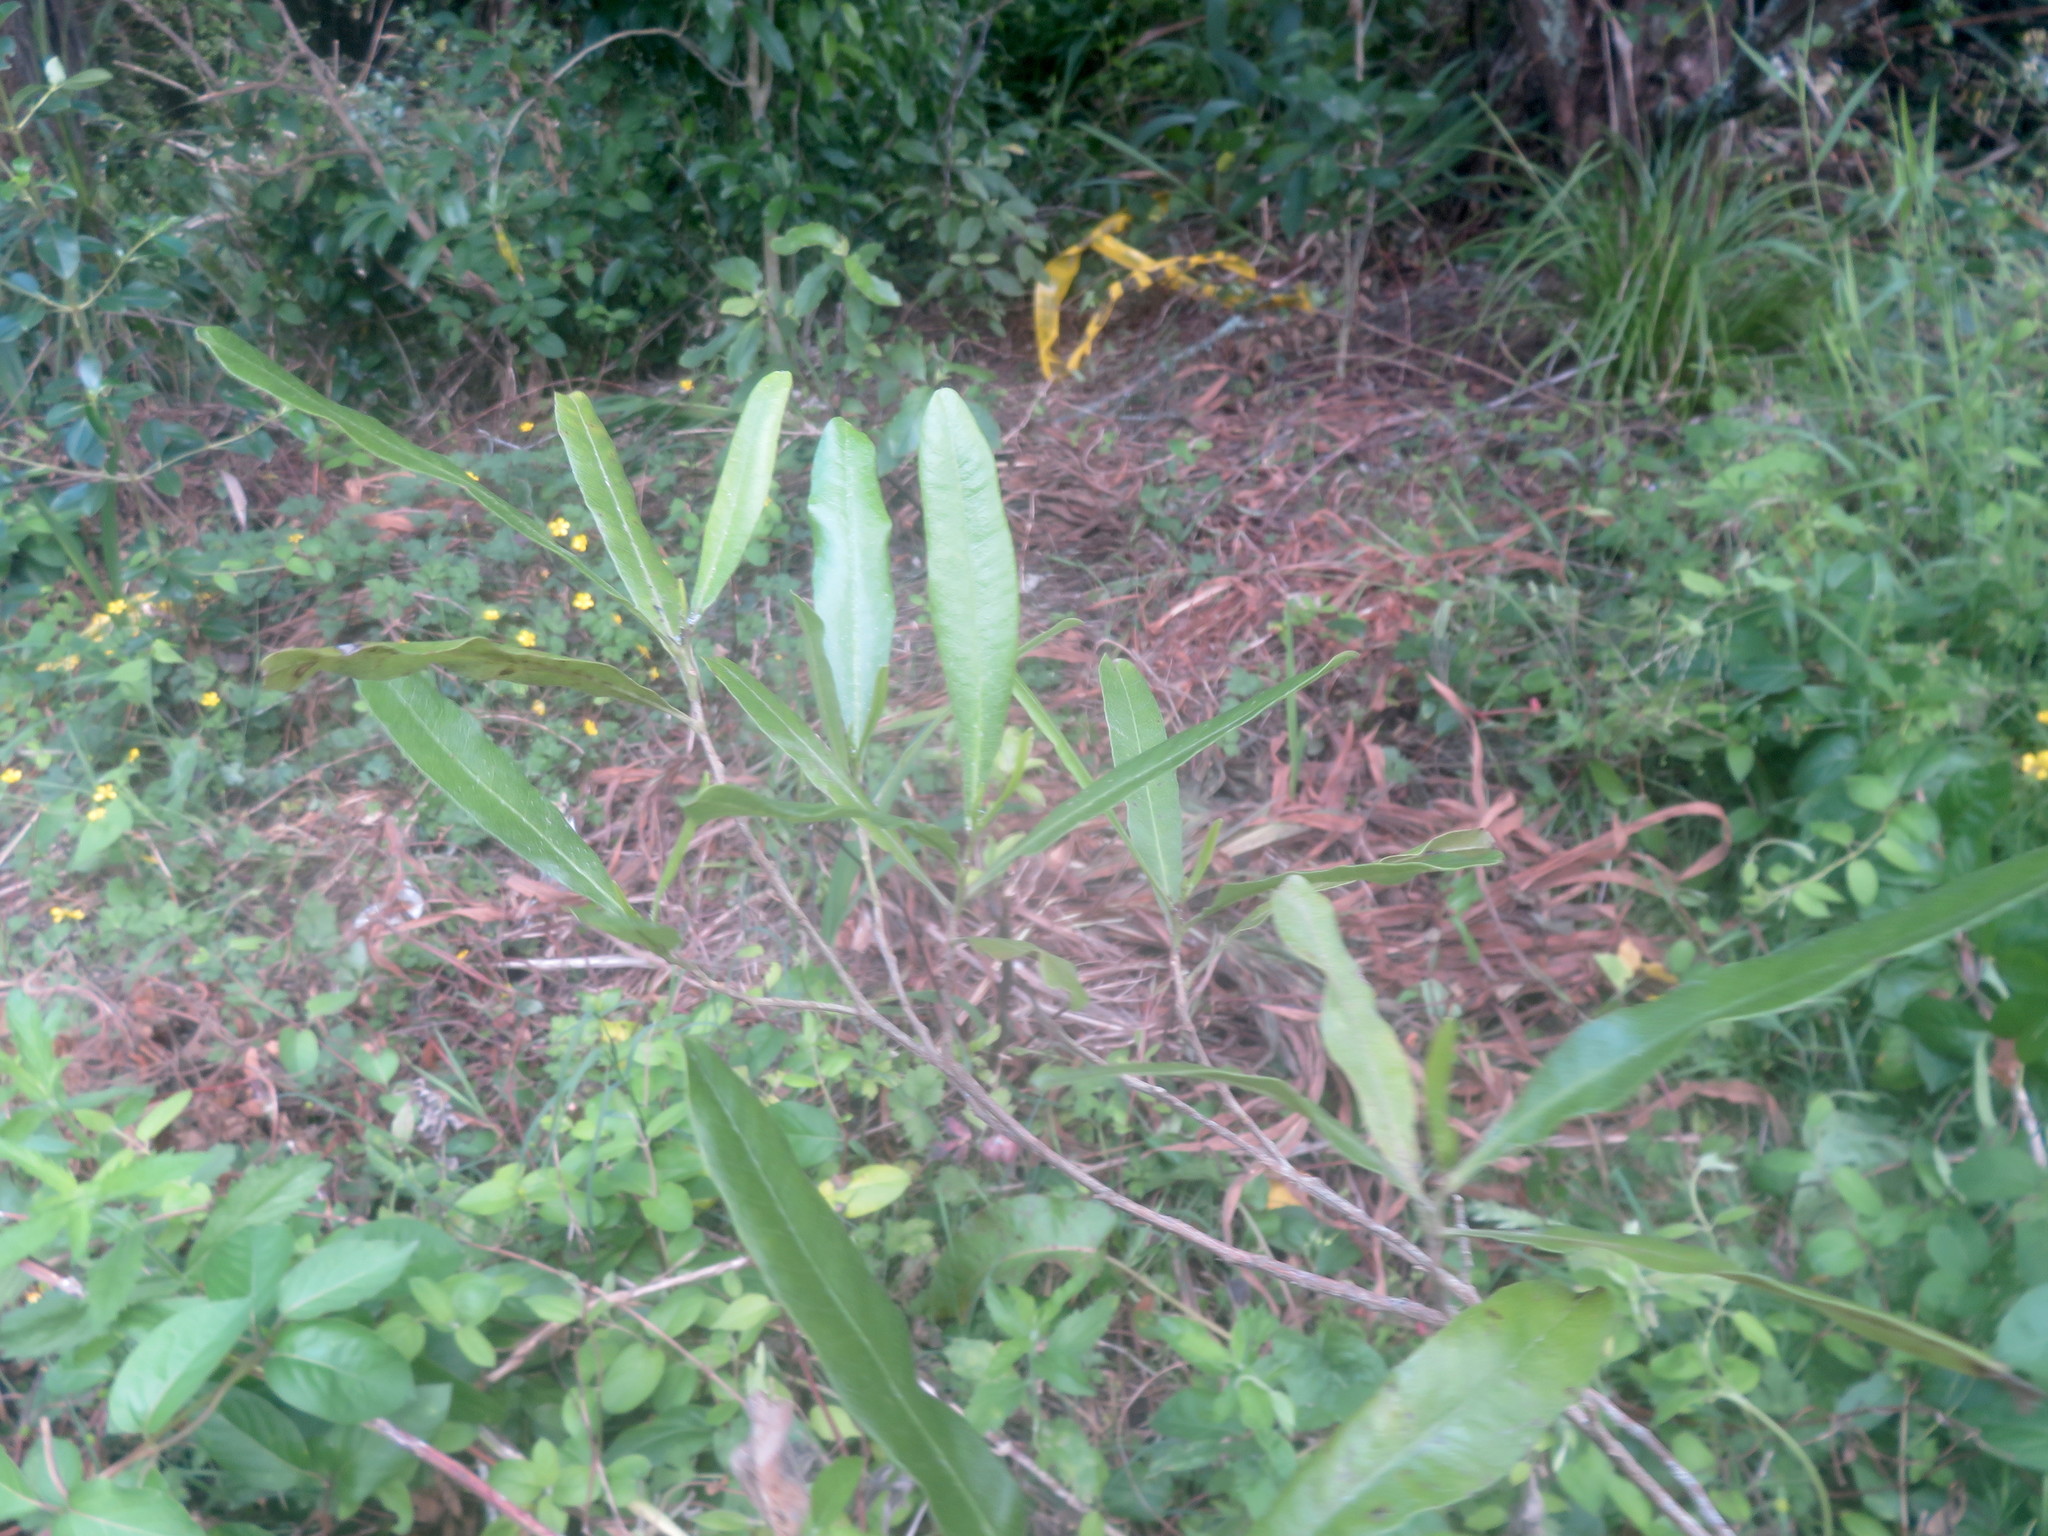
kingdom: Plantae
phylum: Tracheophyta
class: Magnoliopsida
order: Sapindales
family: Sapindaceae
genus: Dodonaea
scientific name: Dodonaea viscosa
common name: Hopbush
